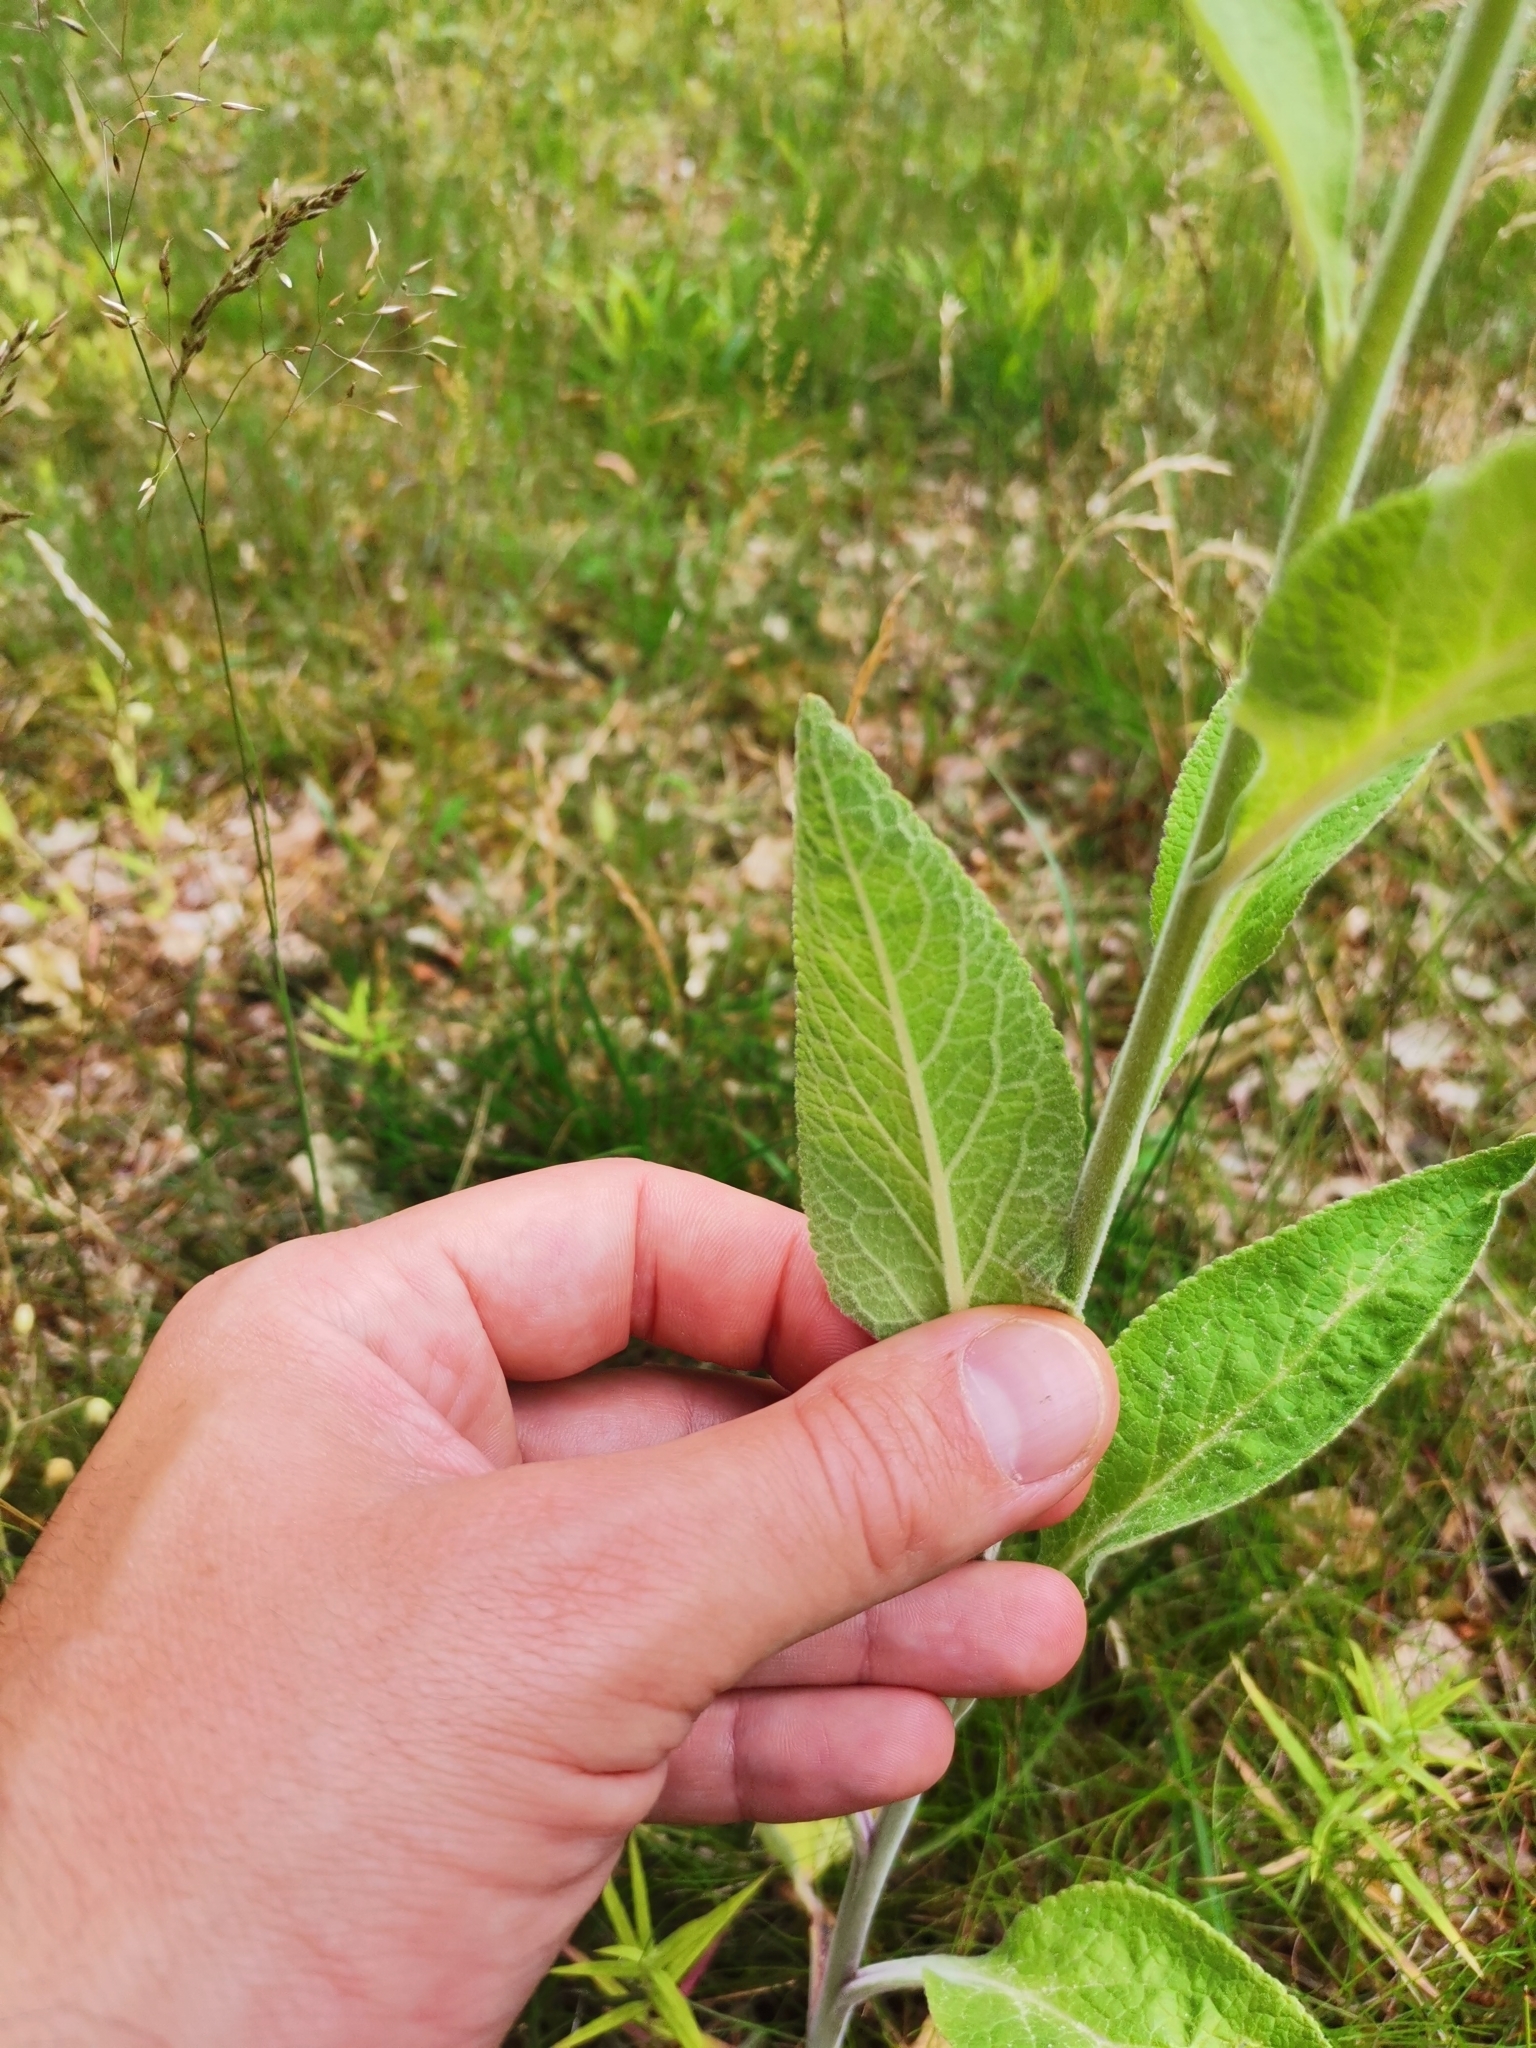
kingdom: Plantae
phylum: Tracheophyta
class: Magnoliopsida
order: Lamiales
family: Plantaginaceae
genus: Digitalis
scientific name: Digitalis purpurea
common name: Foxglove
